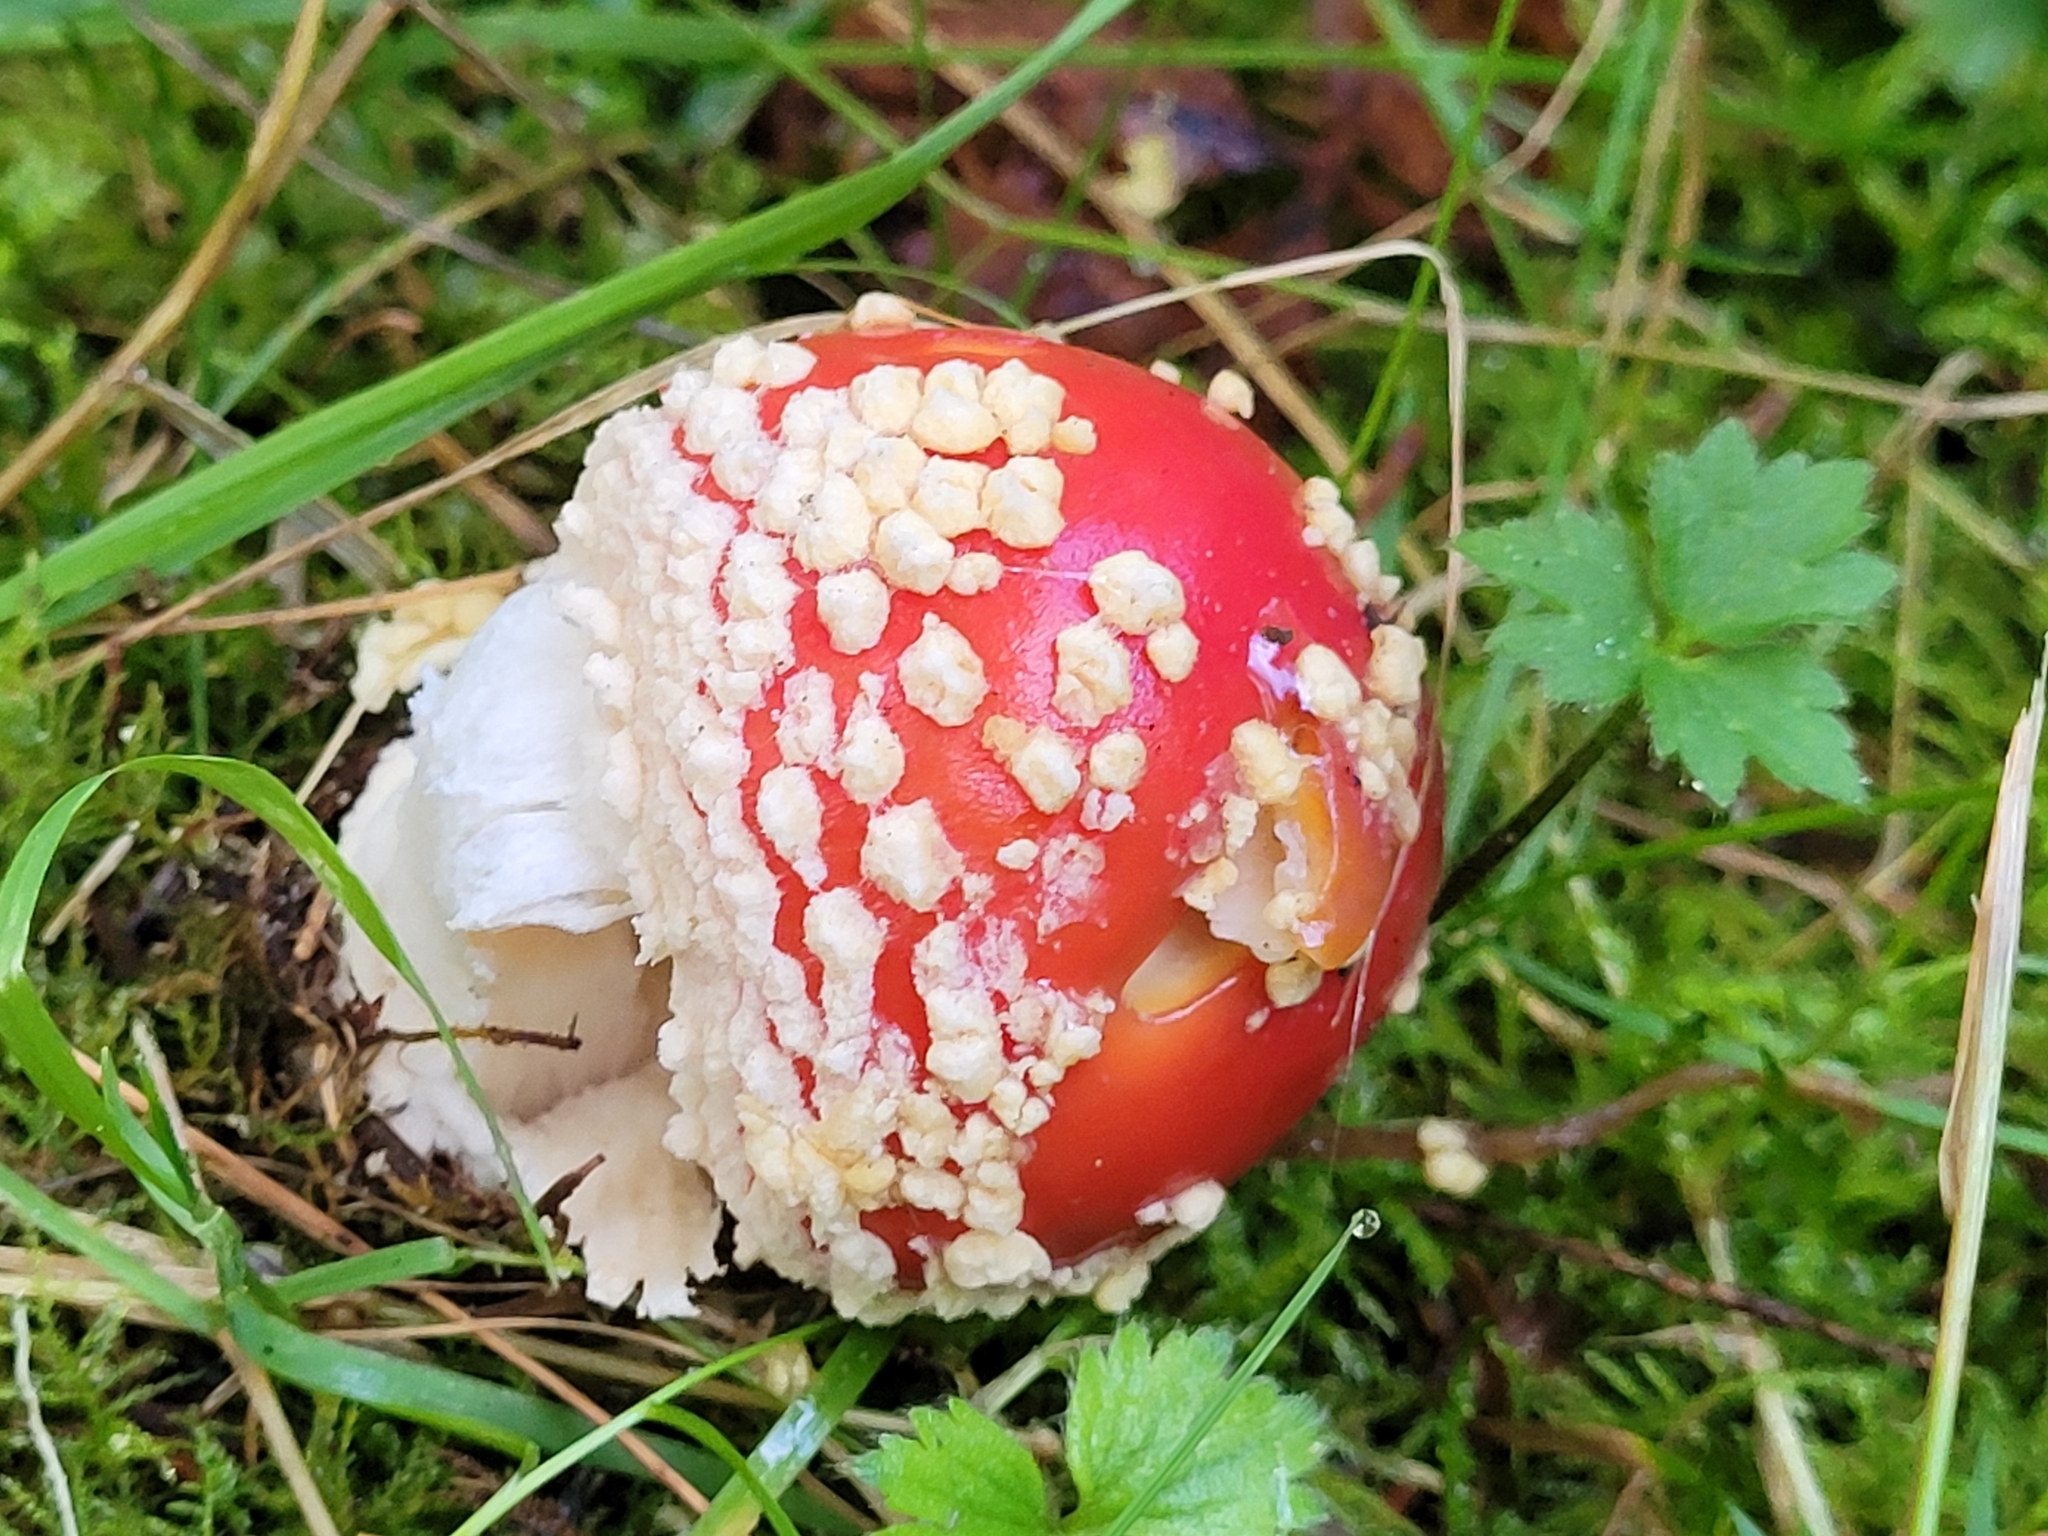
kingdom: Fungi
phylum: Basidiomycota
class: Agaricomycetes
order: Agaricales
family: Amanitaceae
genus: Amanita
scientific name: Amanita muscaria
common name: Fly agaric
